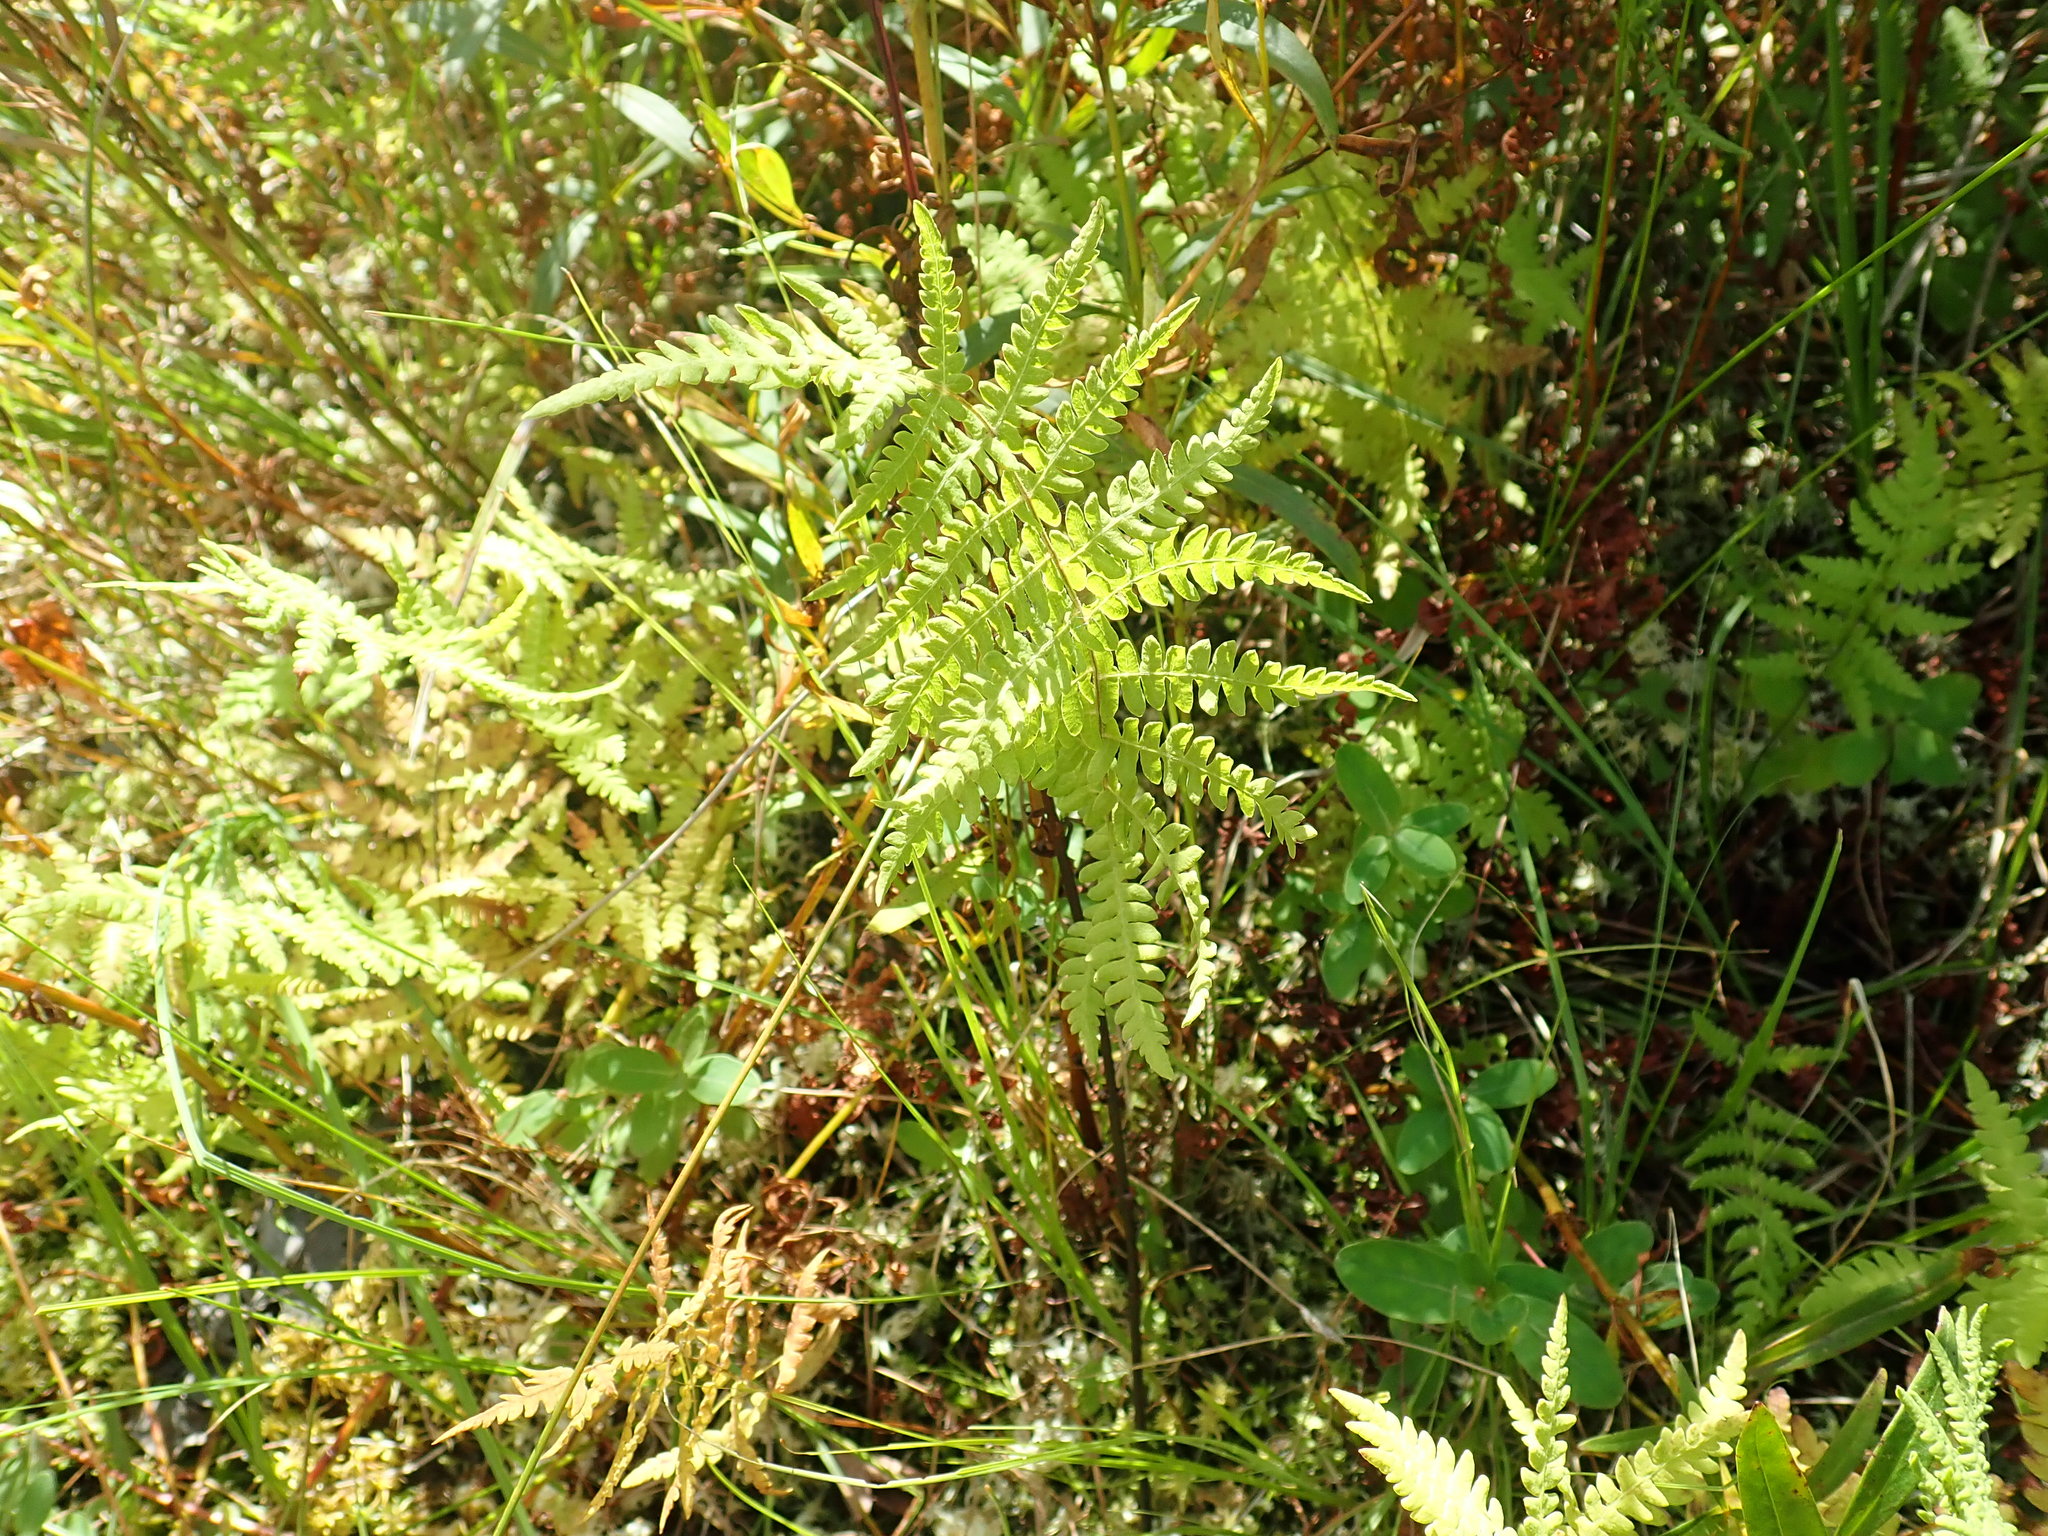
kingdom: Plantae
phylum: Tracheophyta
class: Polypodiopsida
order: Polypodiales
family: Thelypteridaceae
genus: Thelypteris
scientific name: Thelypteris palustris
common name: Marsh fern
